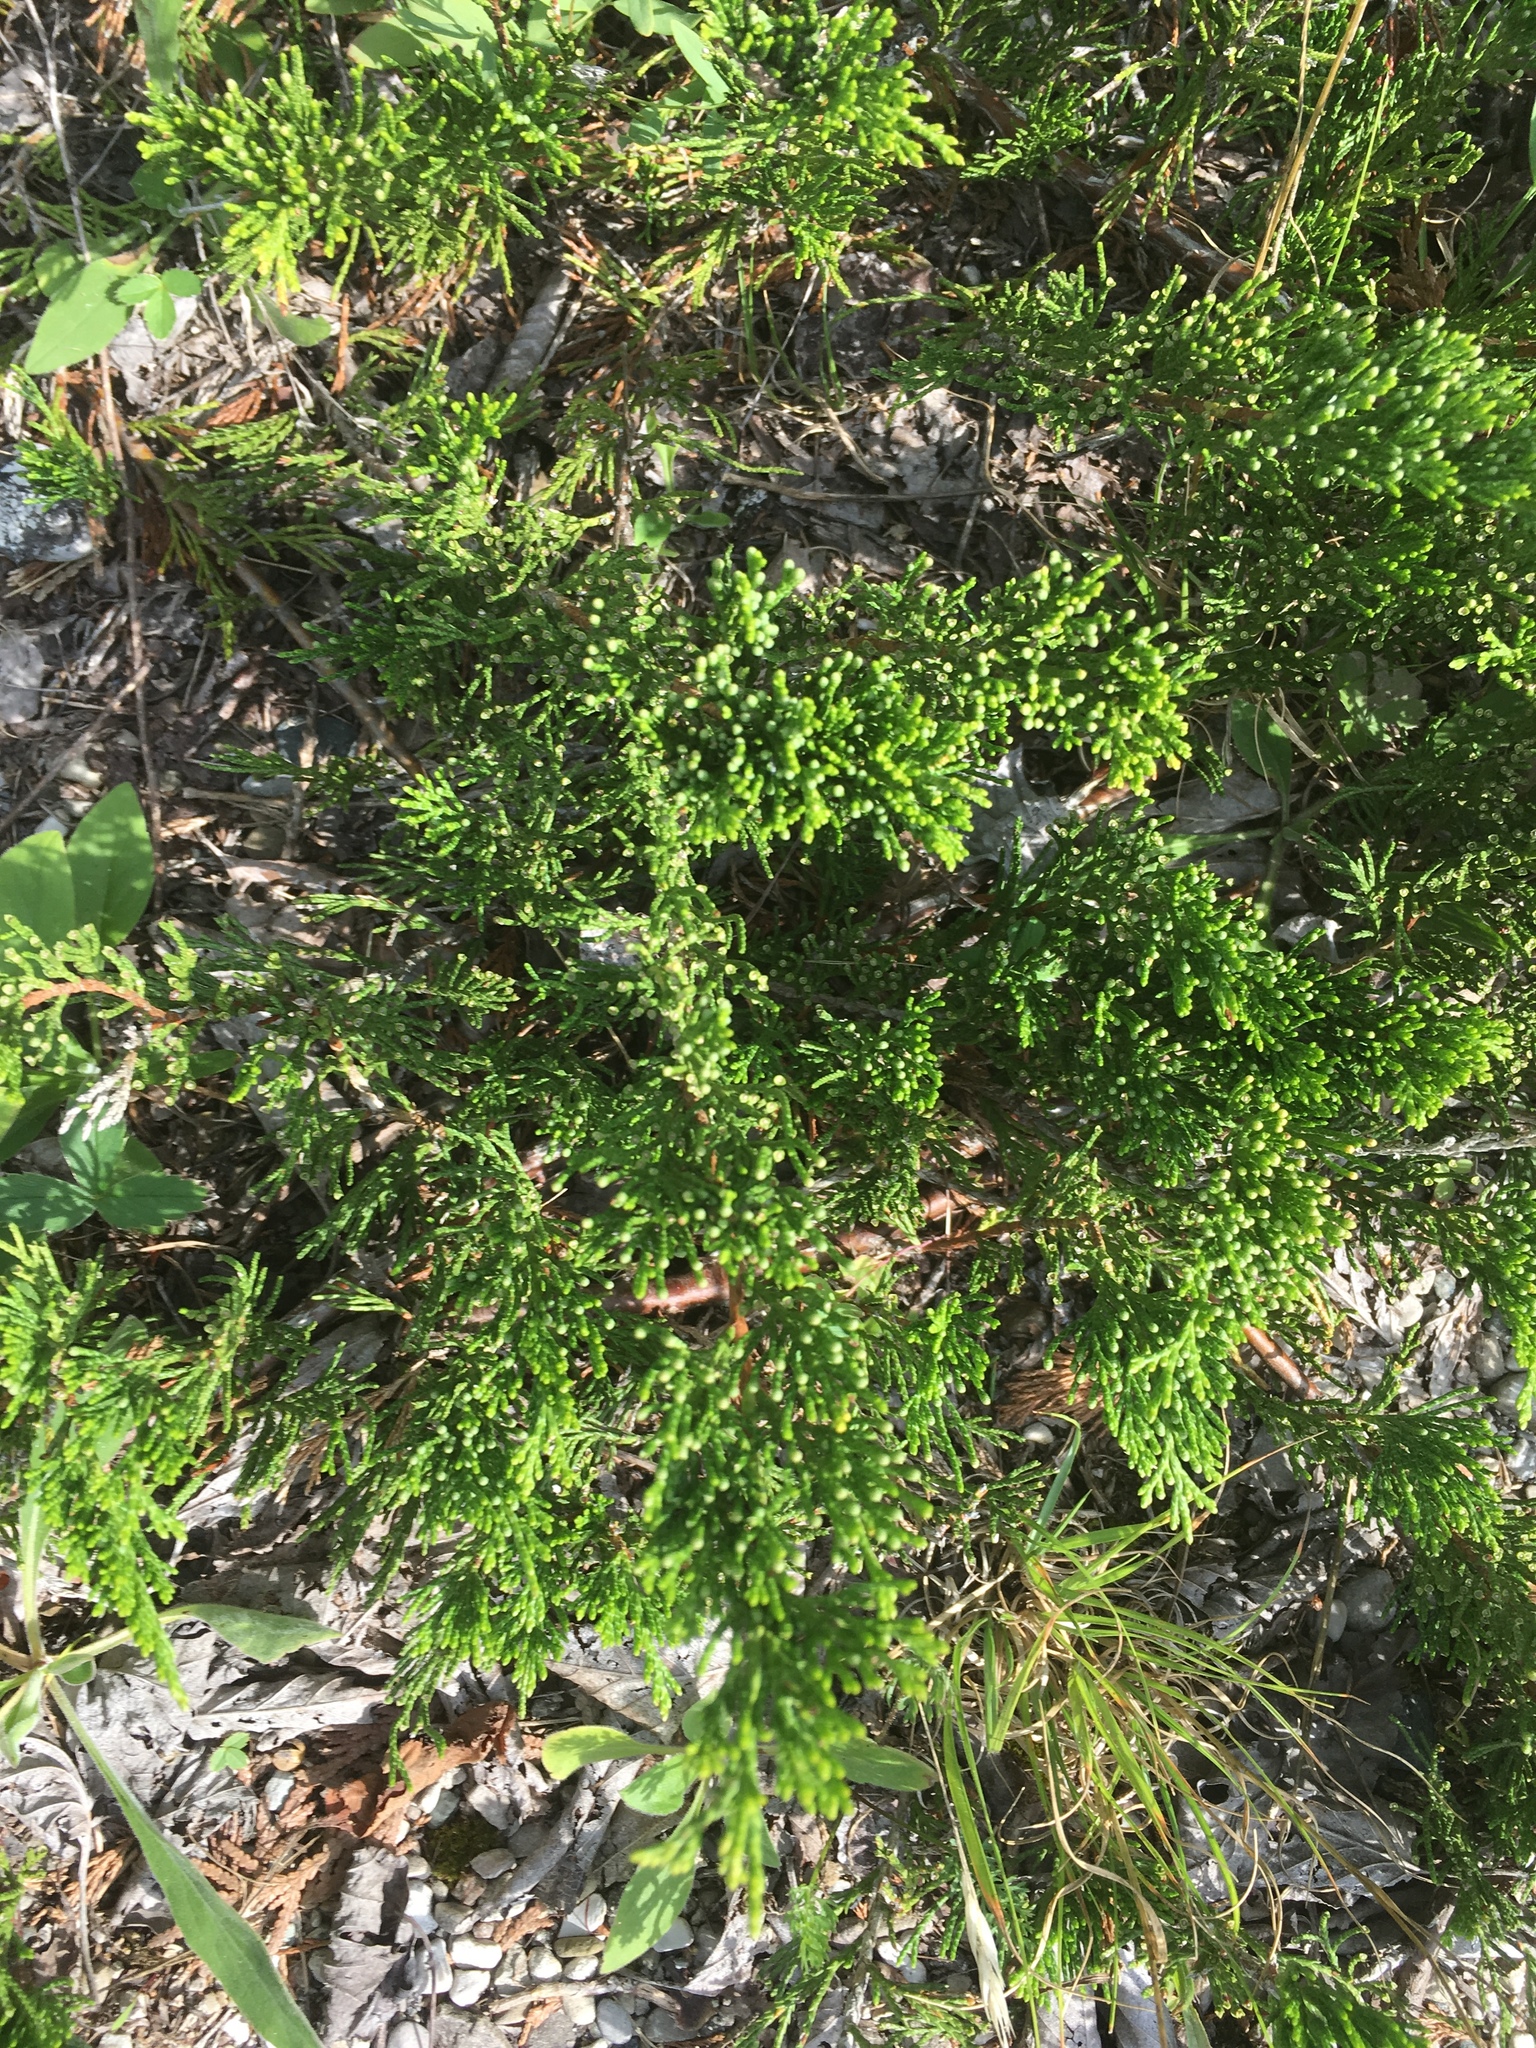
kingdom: Plantae
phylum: Tracheophyta
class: Pinopsida
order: Pinales
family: Cupressaceae
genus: Juniperus
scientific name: Juniperus horizontalis
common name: Creeping juniper
